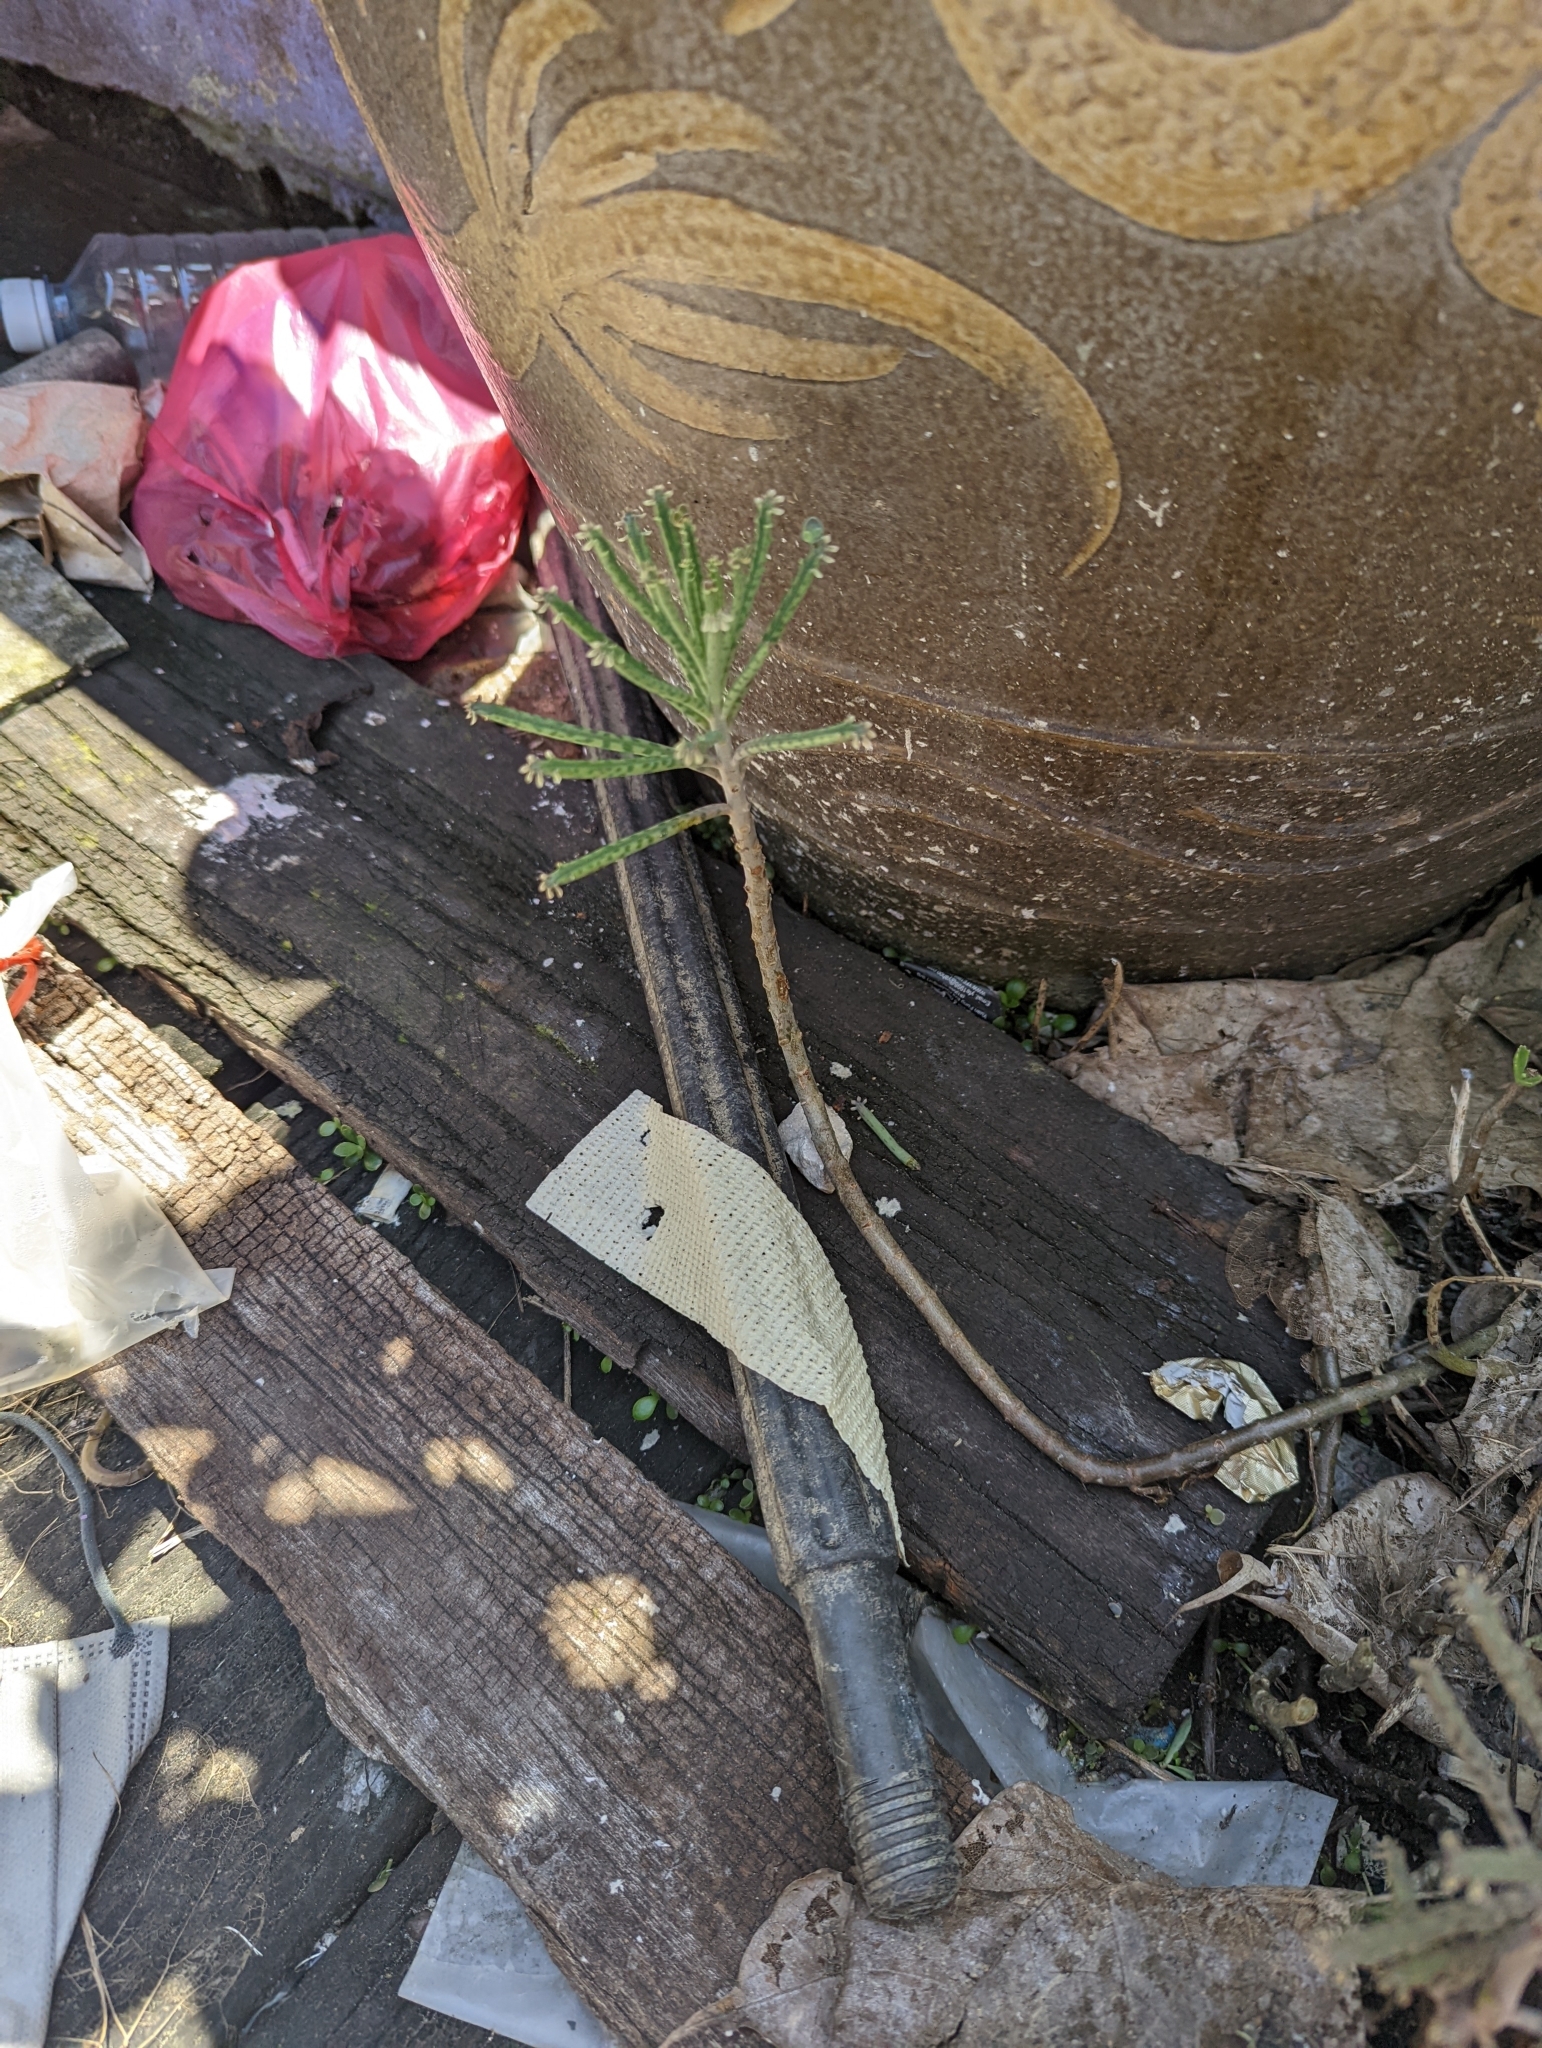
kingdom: Plantae
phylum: Tracheophyta
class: Magnoliopsida
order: Saxifragales
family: Crassulaceae
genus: Kalanchoe
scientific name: Kalanchoe delagoensis
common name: Chandelier plant
